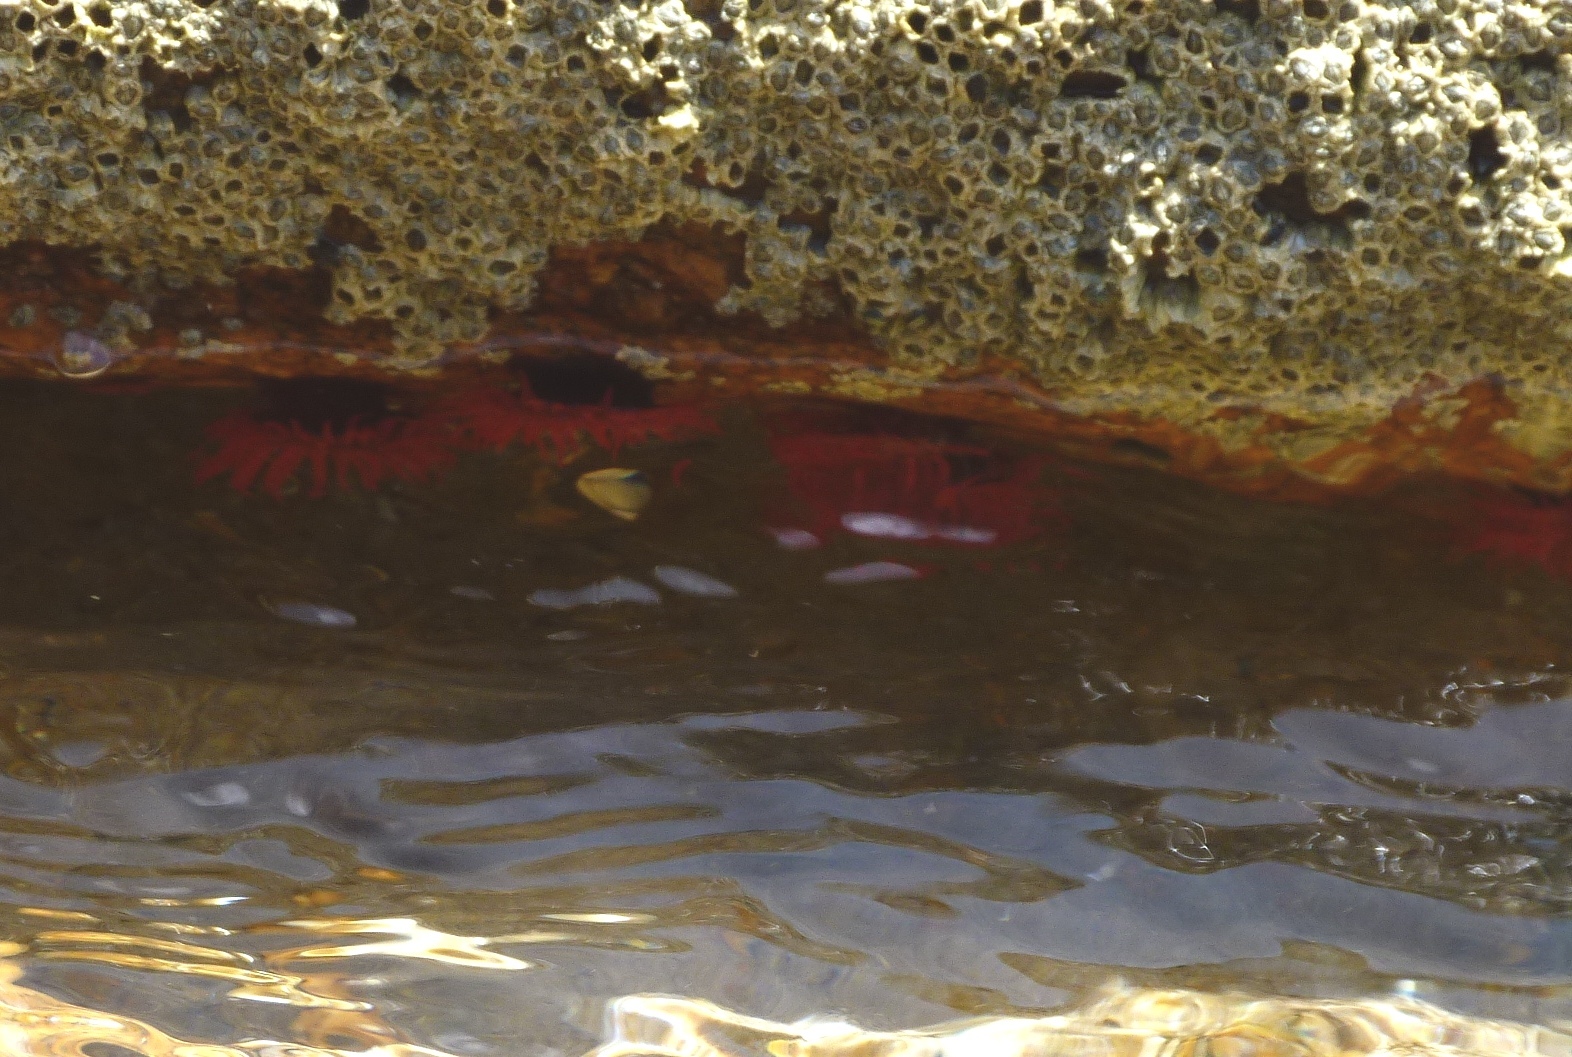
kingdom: Animalia
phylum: Cnidaria
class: Anthozoa
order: Actiniaria
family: Actiniidae
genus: Actinia
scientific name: Actinia tenebrosa
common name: Waratah anemone
